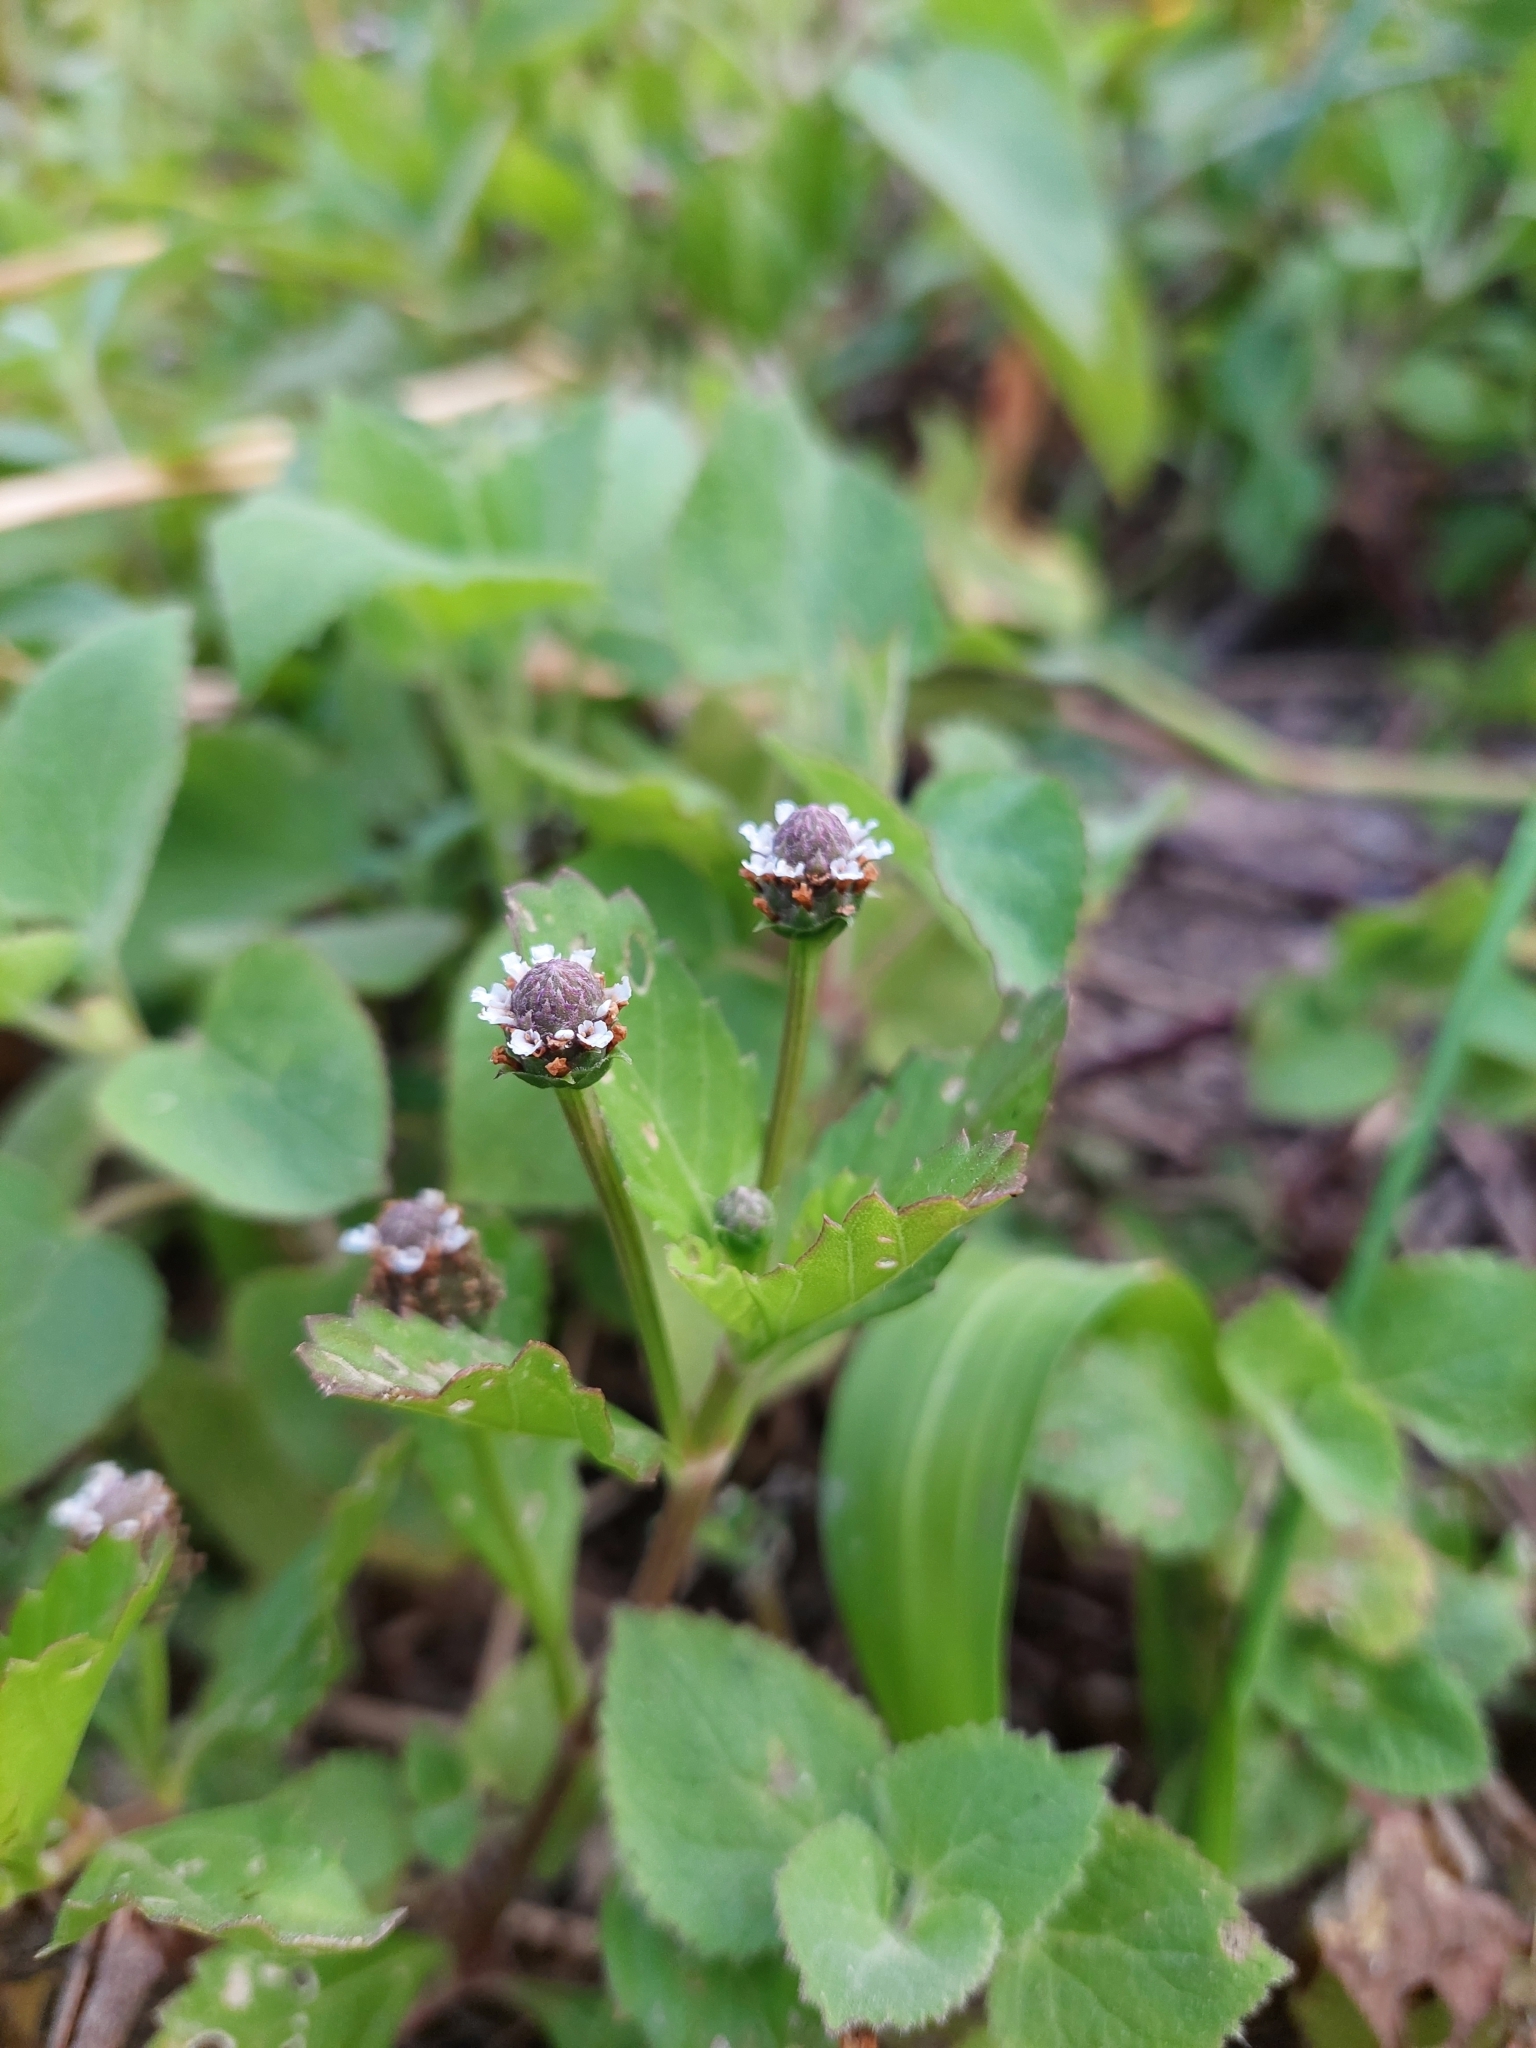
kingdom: Plantae
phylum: Tracheophyta
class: Magnoliopsida
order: Lamiales
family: Verbenaceae
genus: Phyla
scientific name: Phyla nodiflora
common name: Frogfruit
